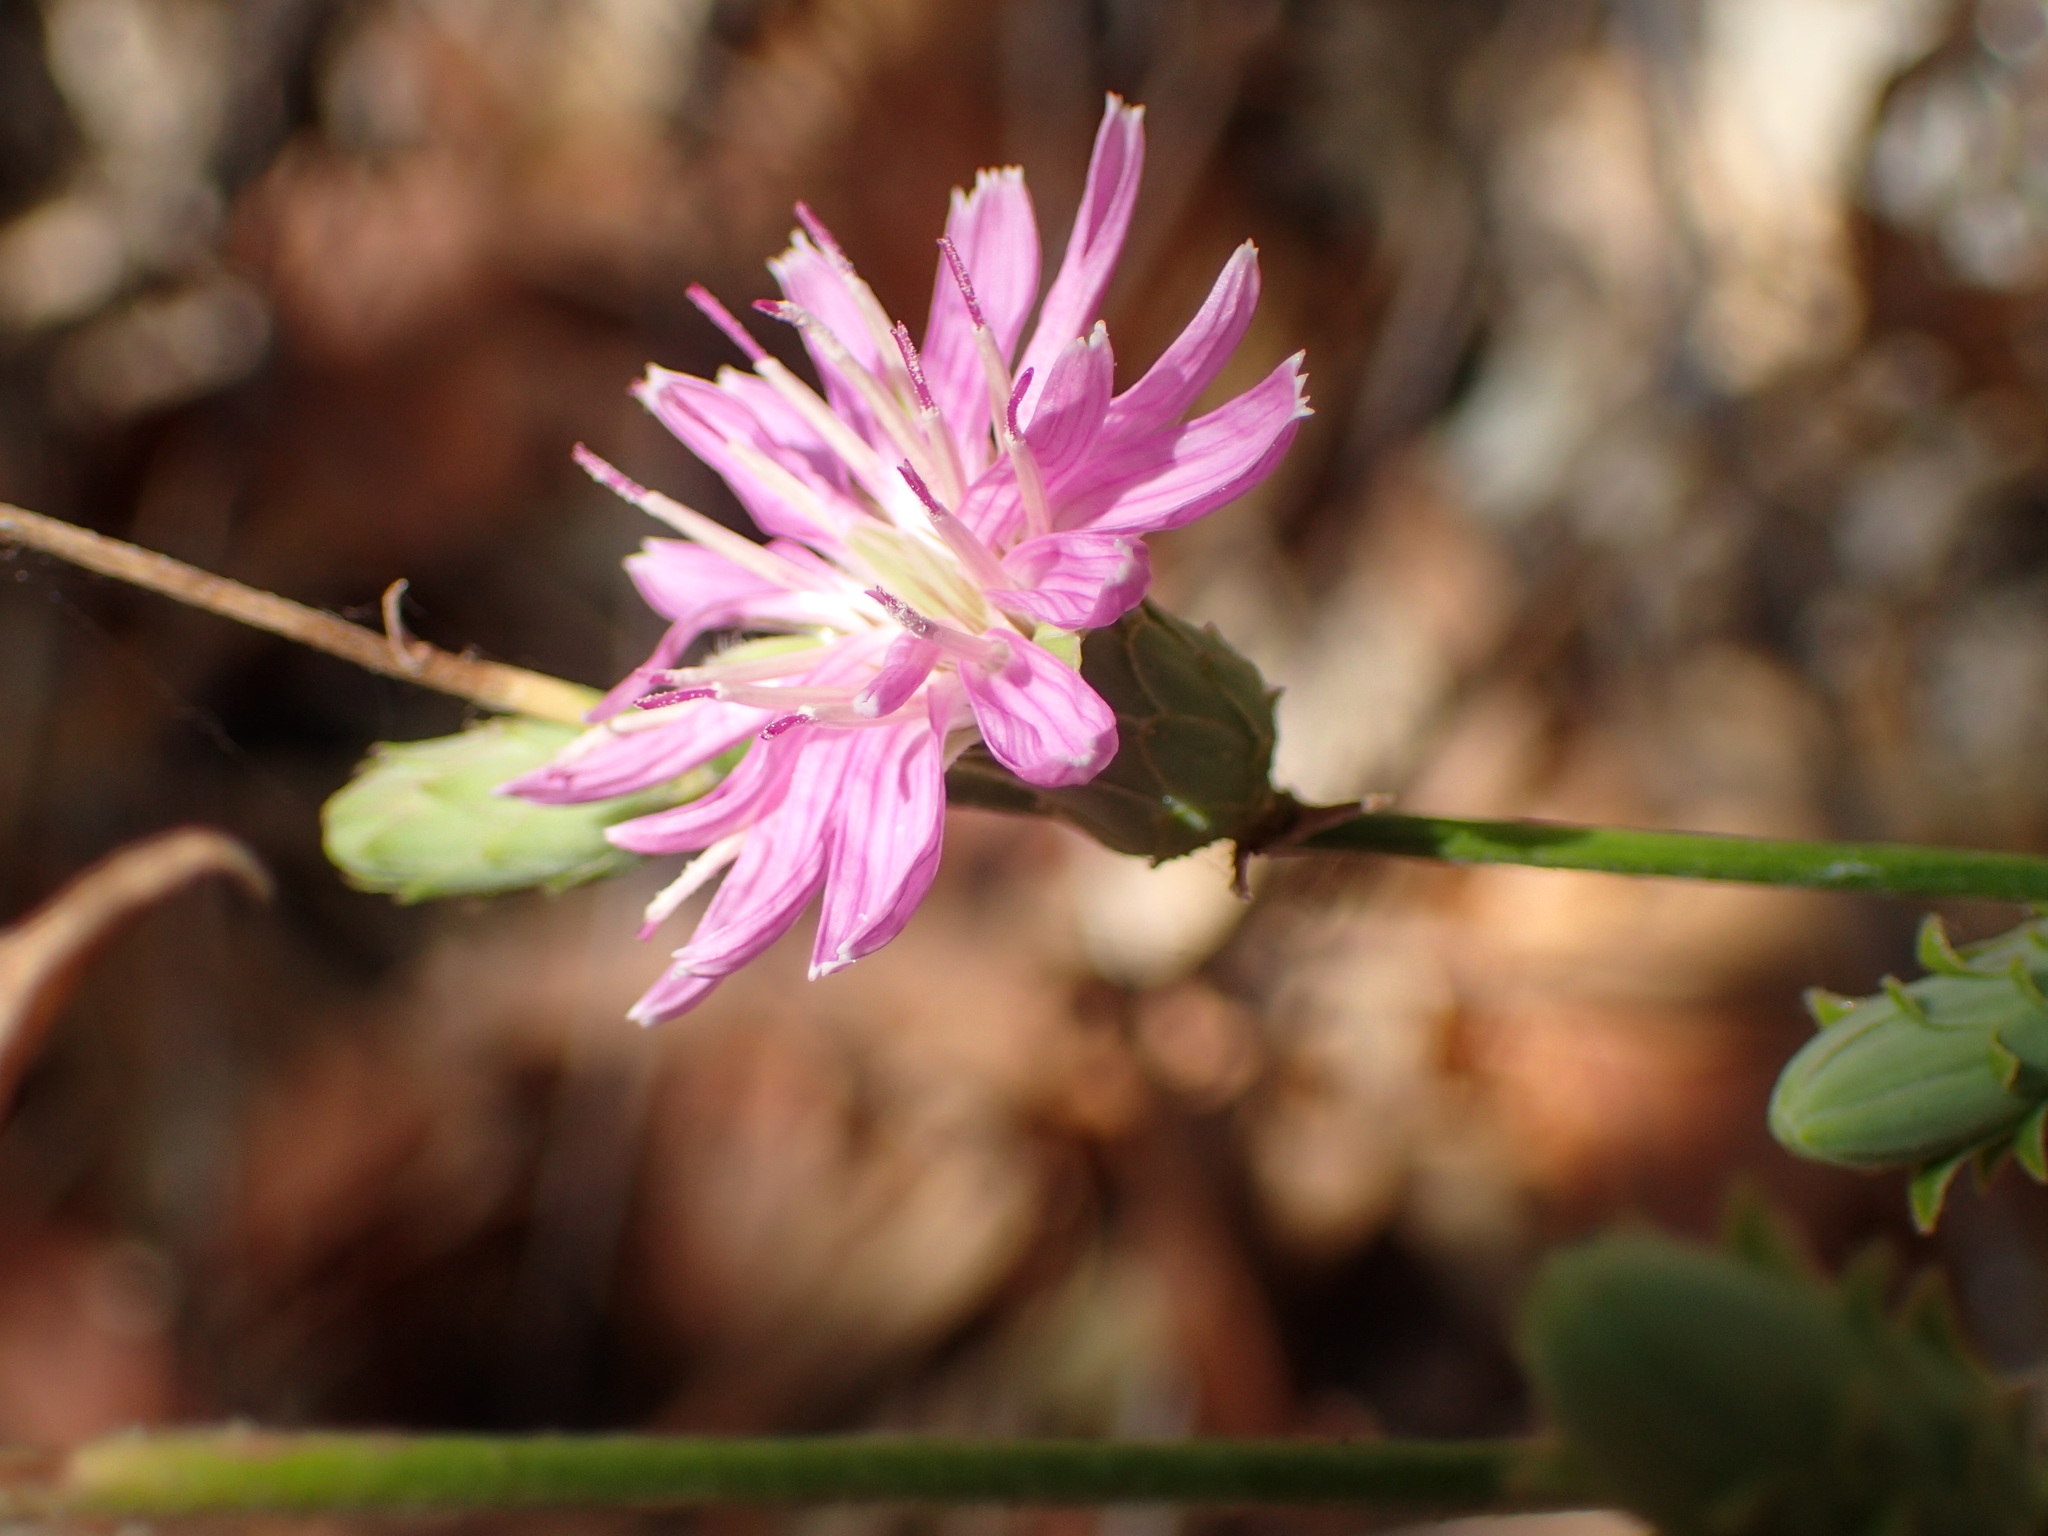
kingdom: Plantae
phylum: Tracheophyta
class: Magnoliopsida
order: Asterales
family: Asteraceae
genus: Stephanomeria
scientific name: Stephanomeria cichoriacea
